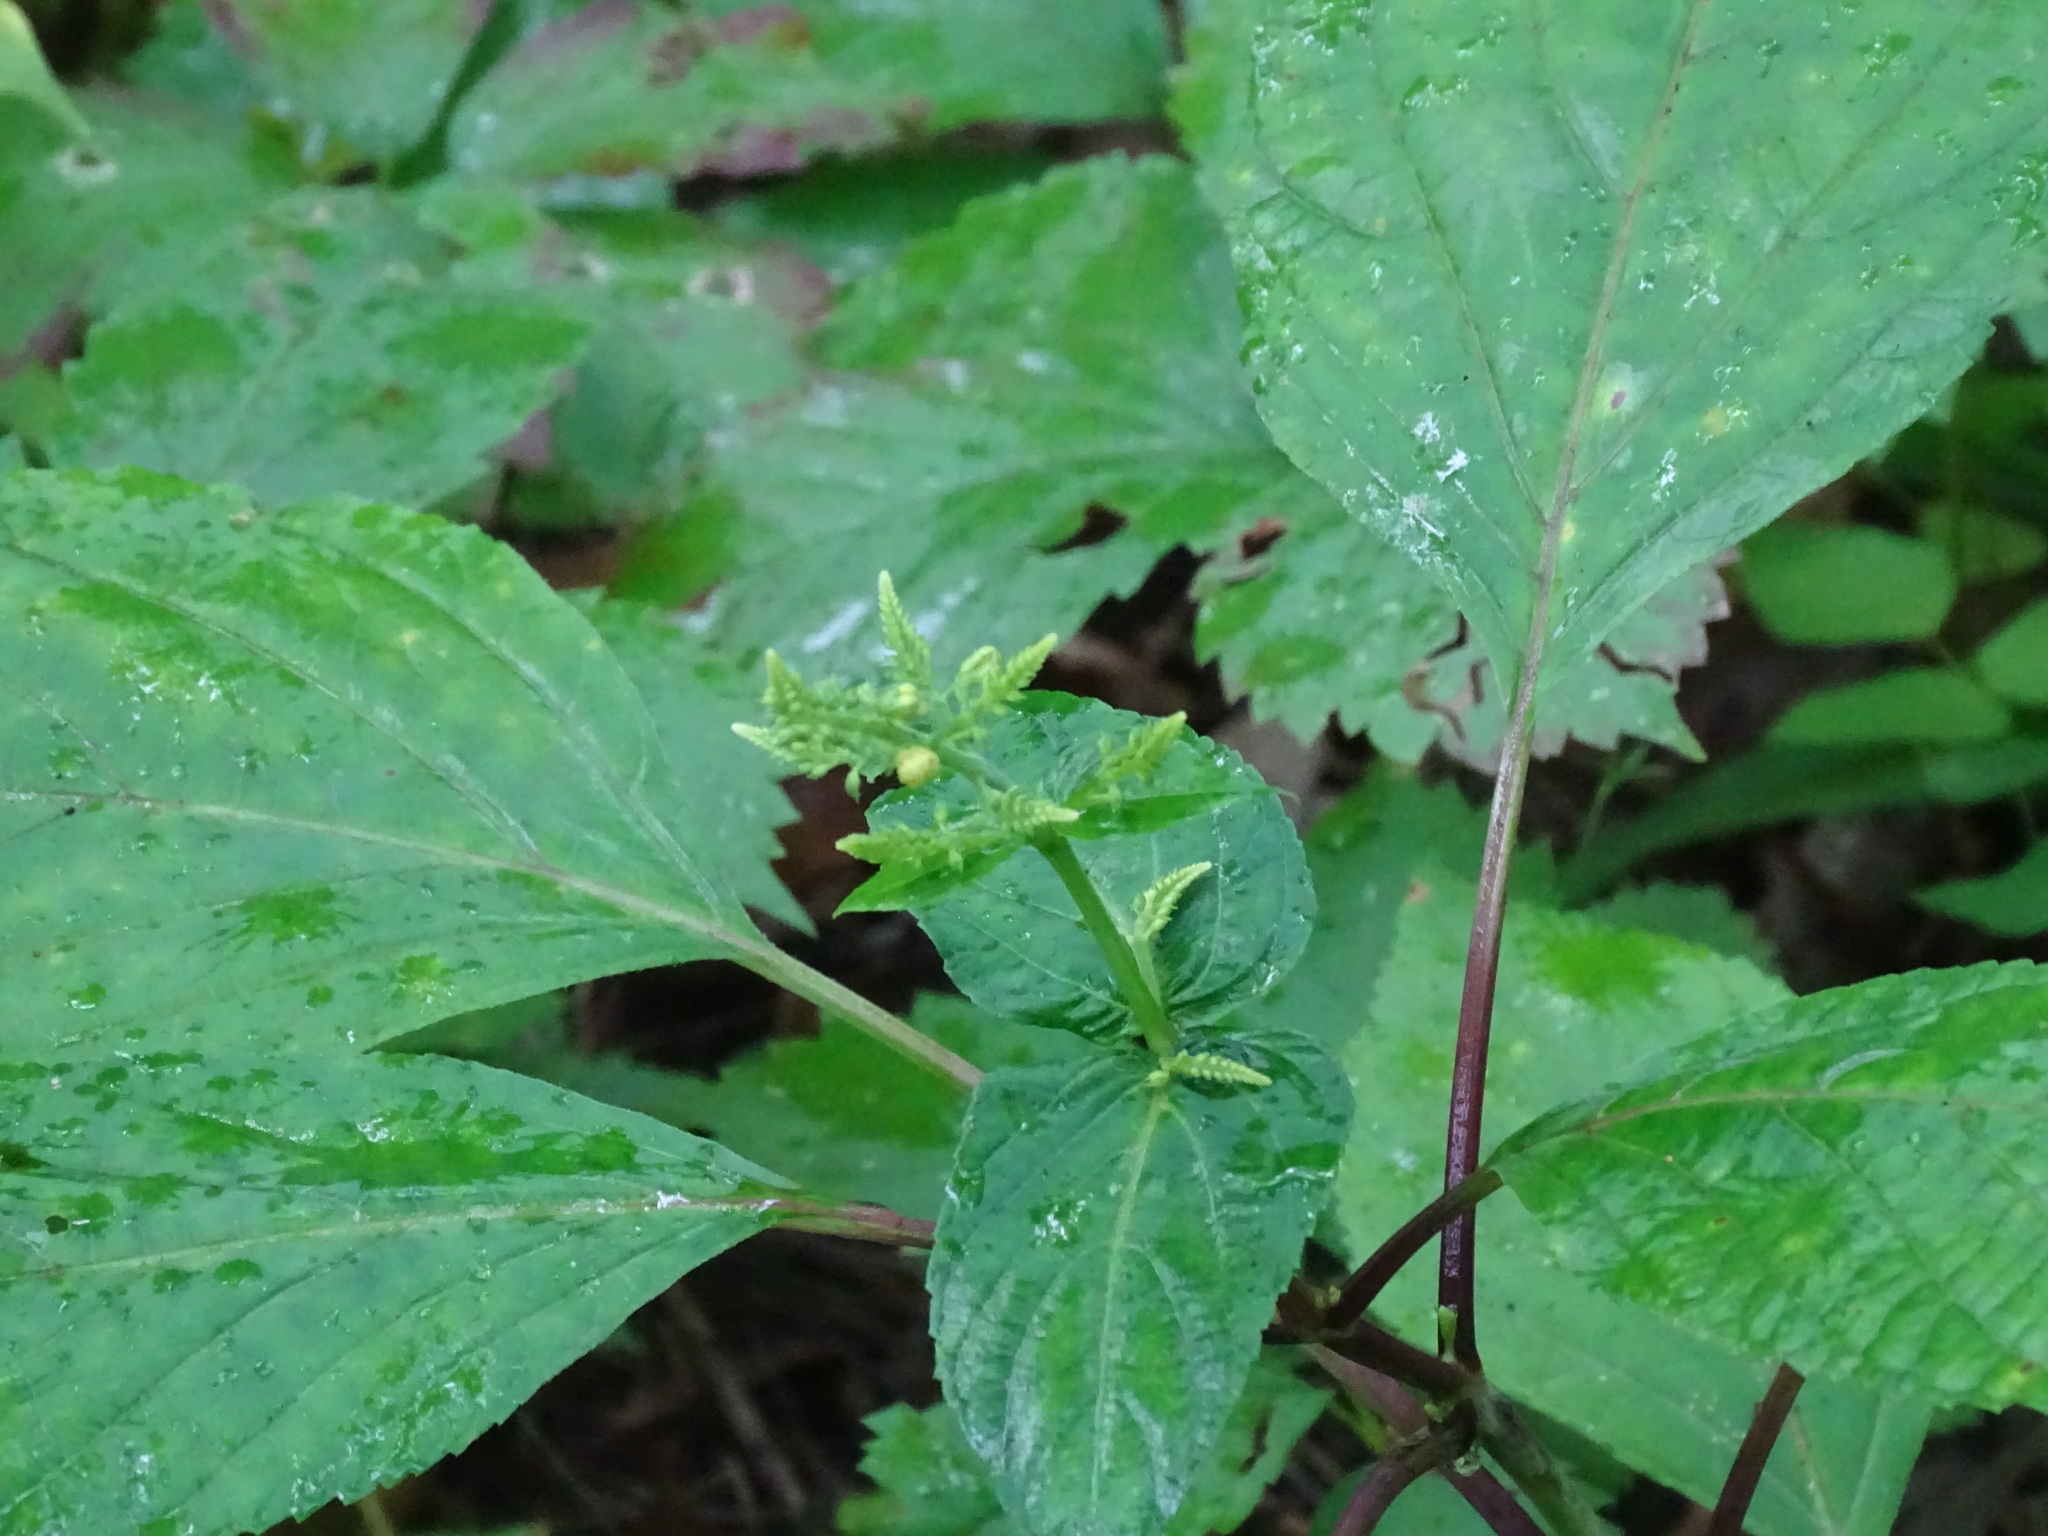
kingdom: Plantae
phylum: Tracheophyta
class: Magnoliopsida
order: Lamiales
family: Lamiaceae
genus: Collinsonia
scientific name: Collinsonia canadensis
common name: Northern horsebalm
